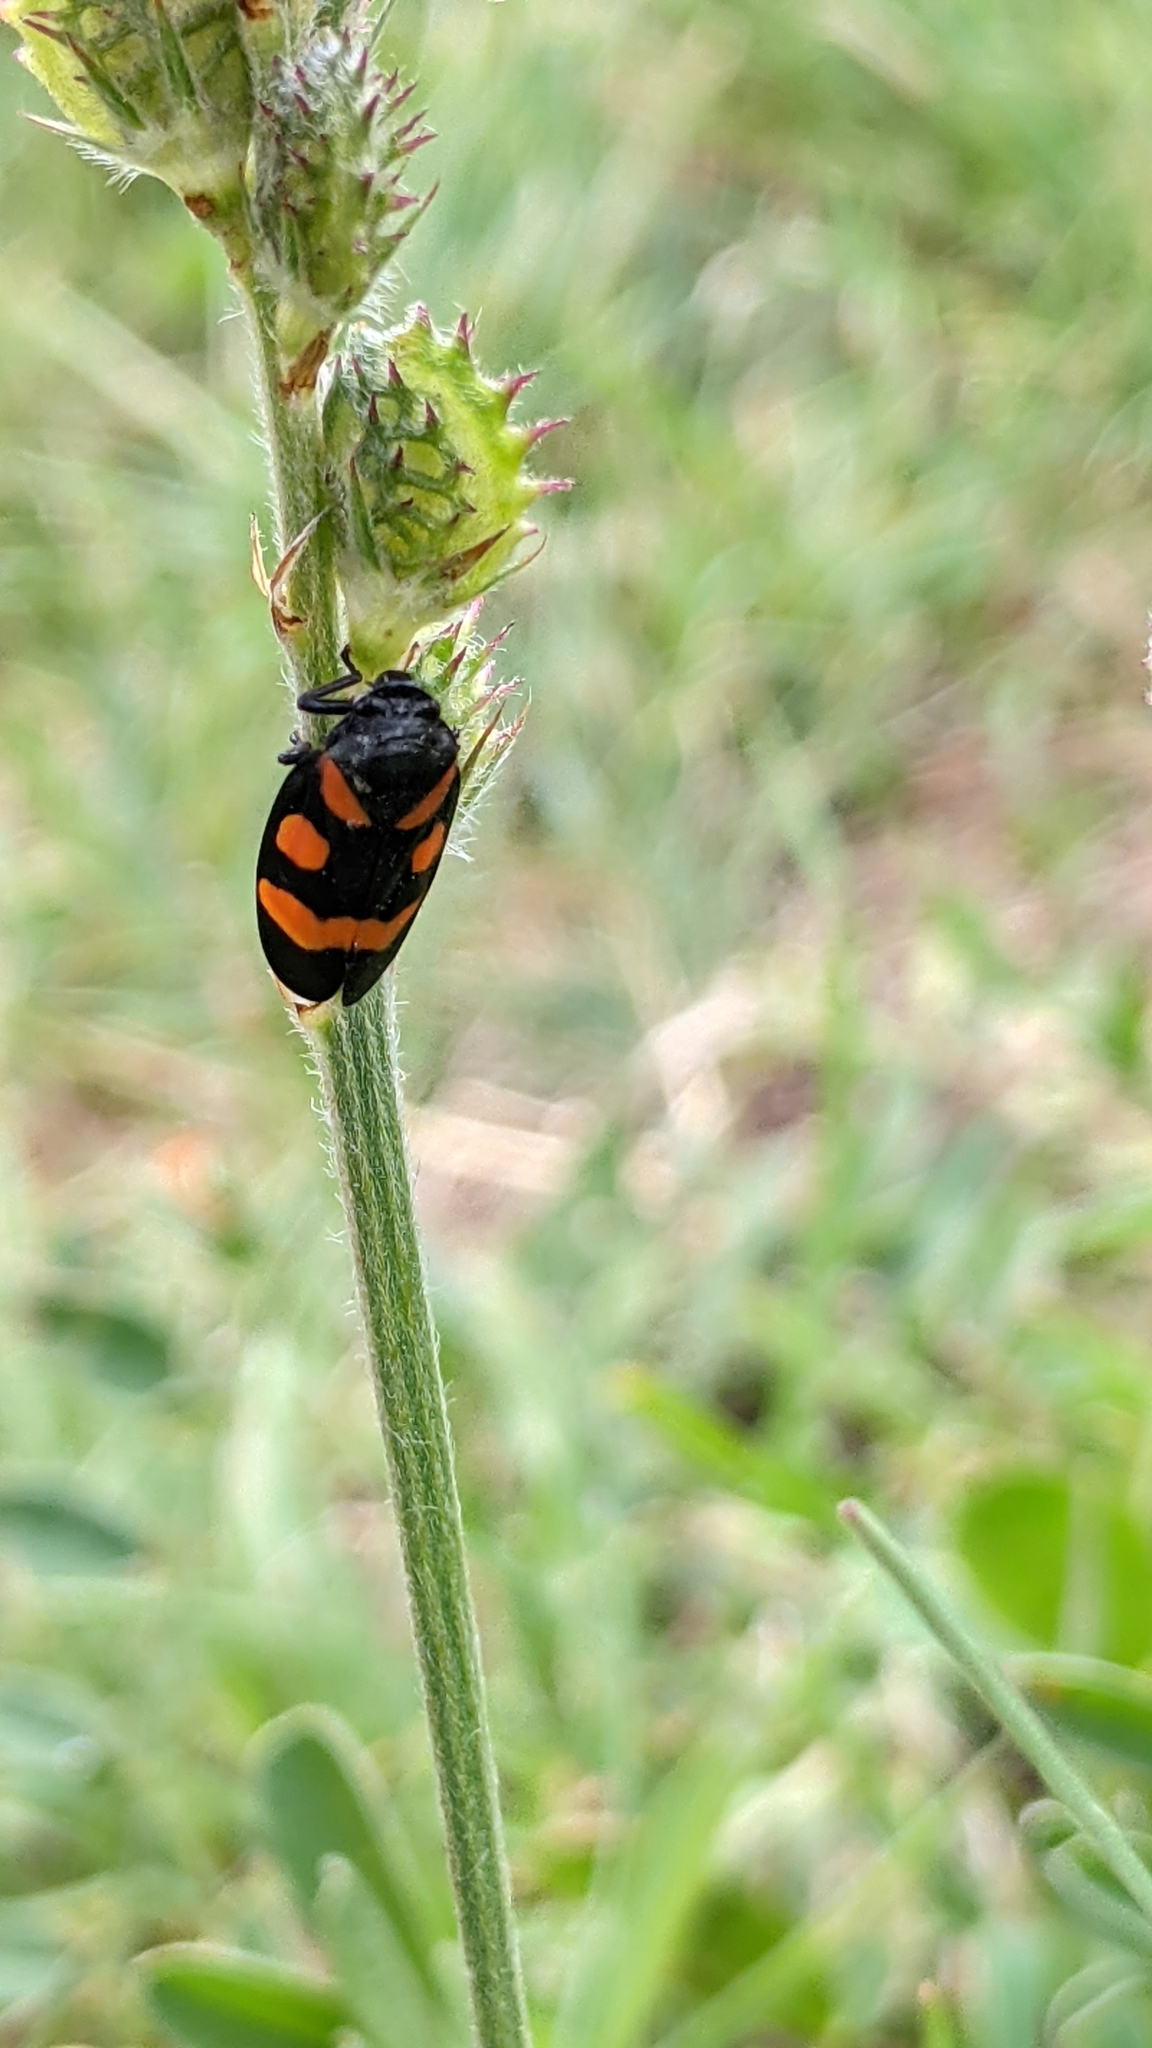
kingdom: Animalia
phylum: Arthropoda
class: Insecta
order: Hemiptera
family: Cercopidae
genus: Cercopis
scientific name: Cercopis sanguinolenta
